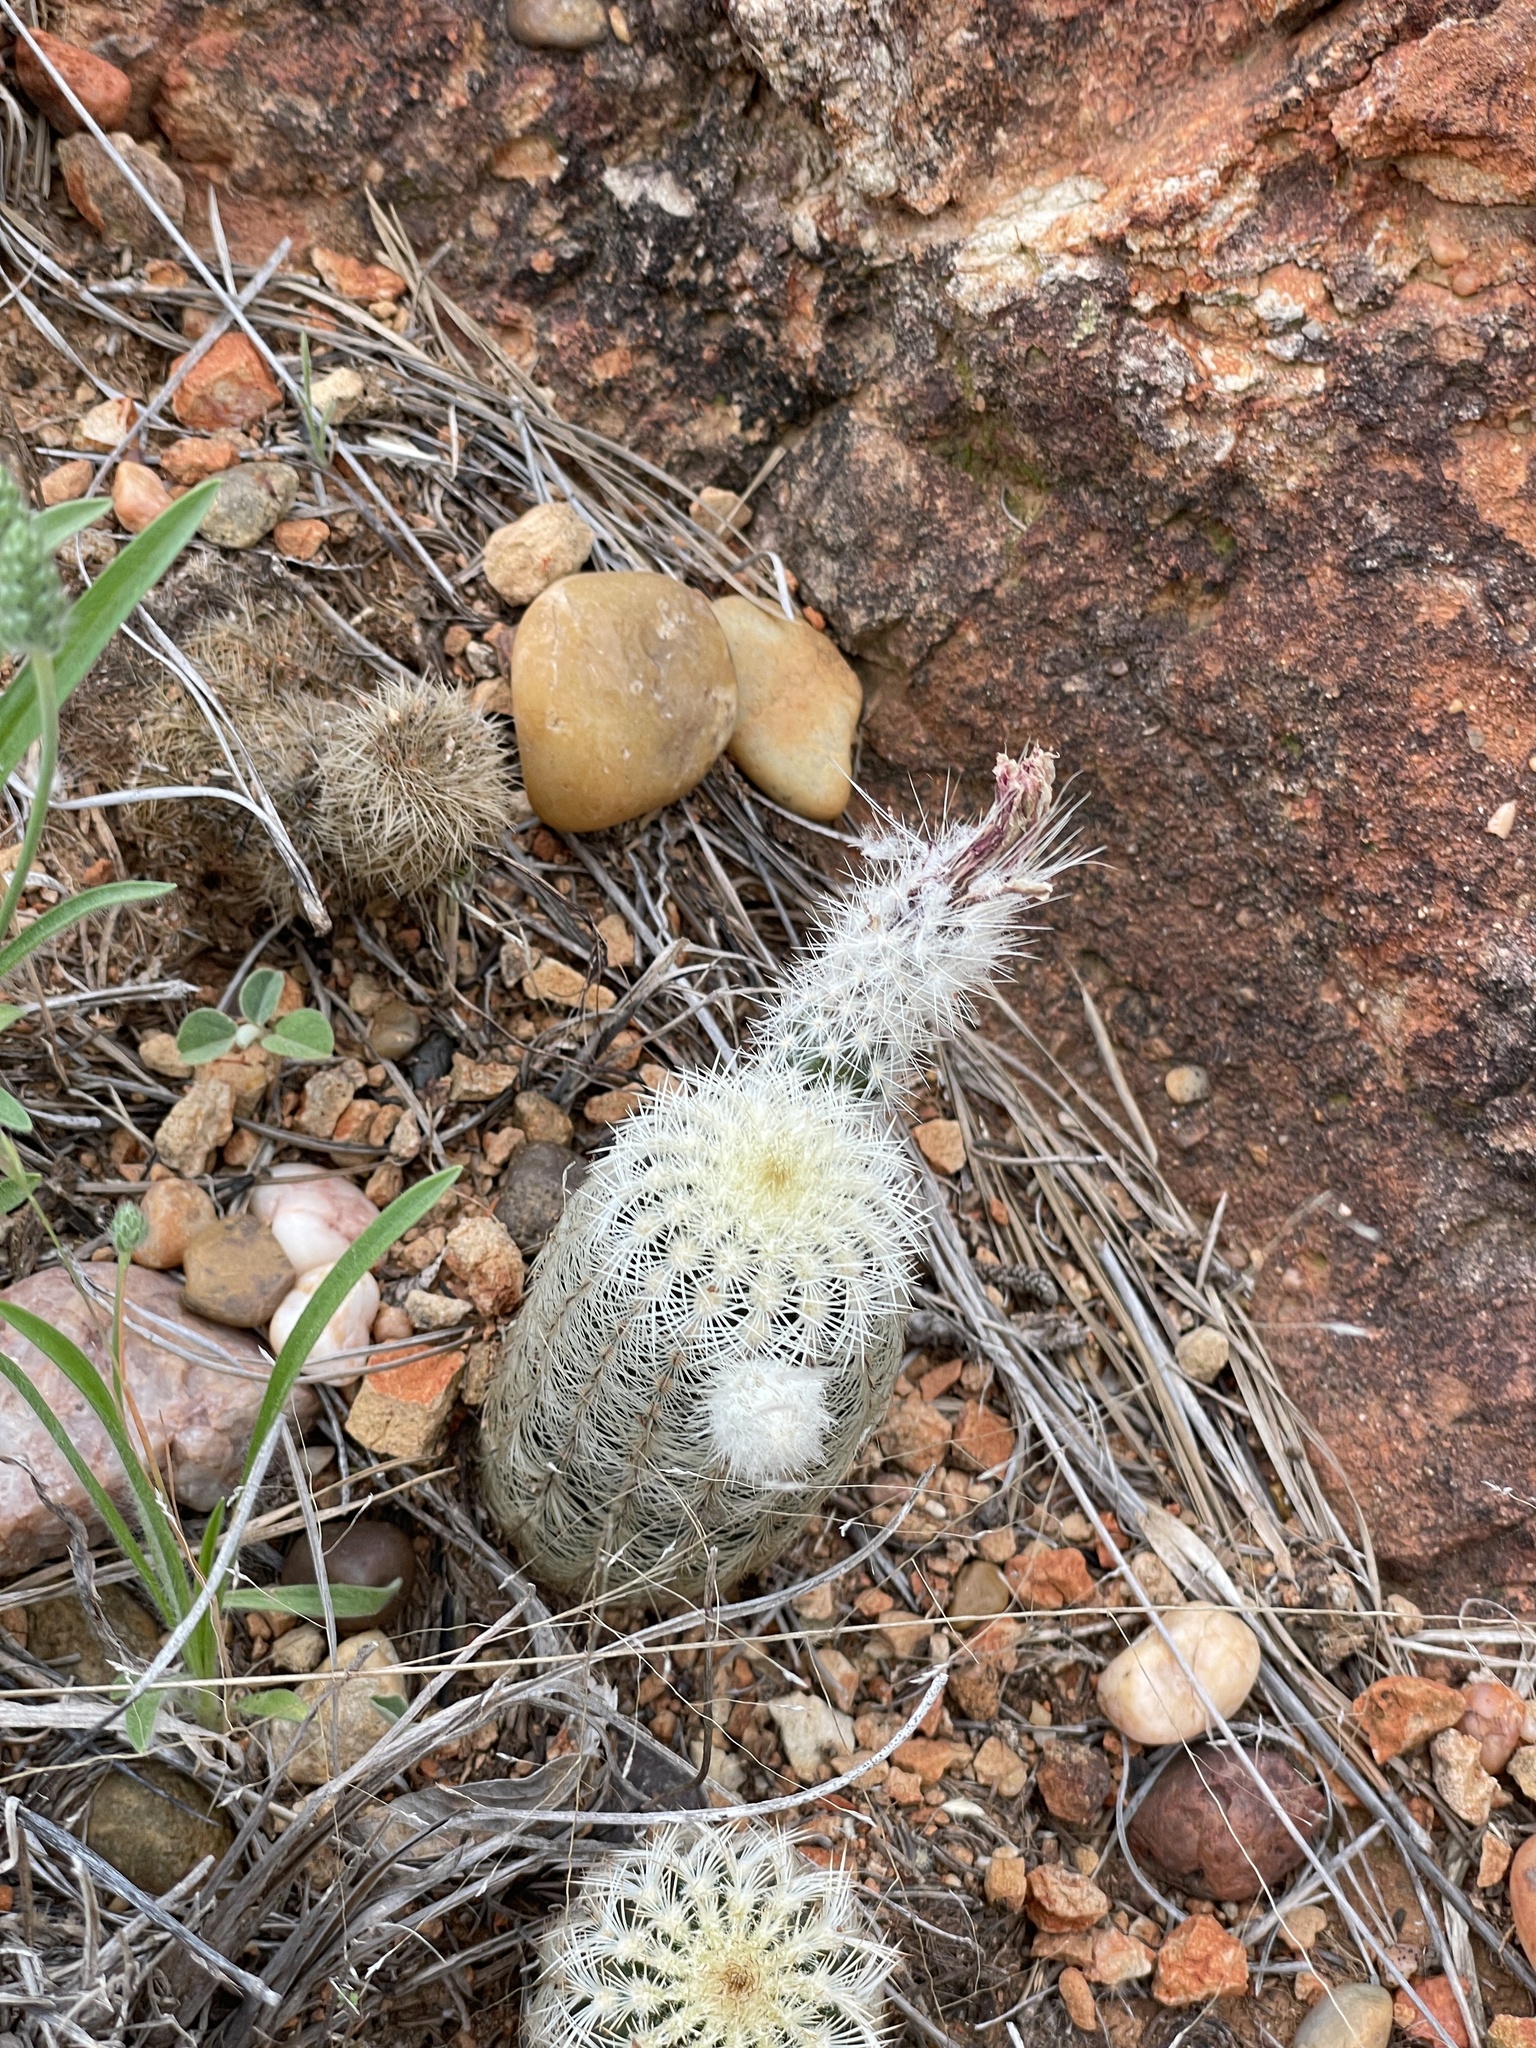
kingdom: Plantae
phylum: Tracheophyta
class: Magnoliopsida
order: Caryophyllales
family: Cactaceae
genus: Echinocereus
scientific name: Echinocereus reichenbachii
